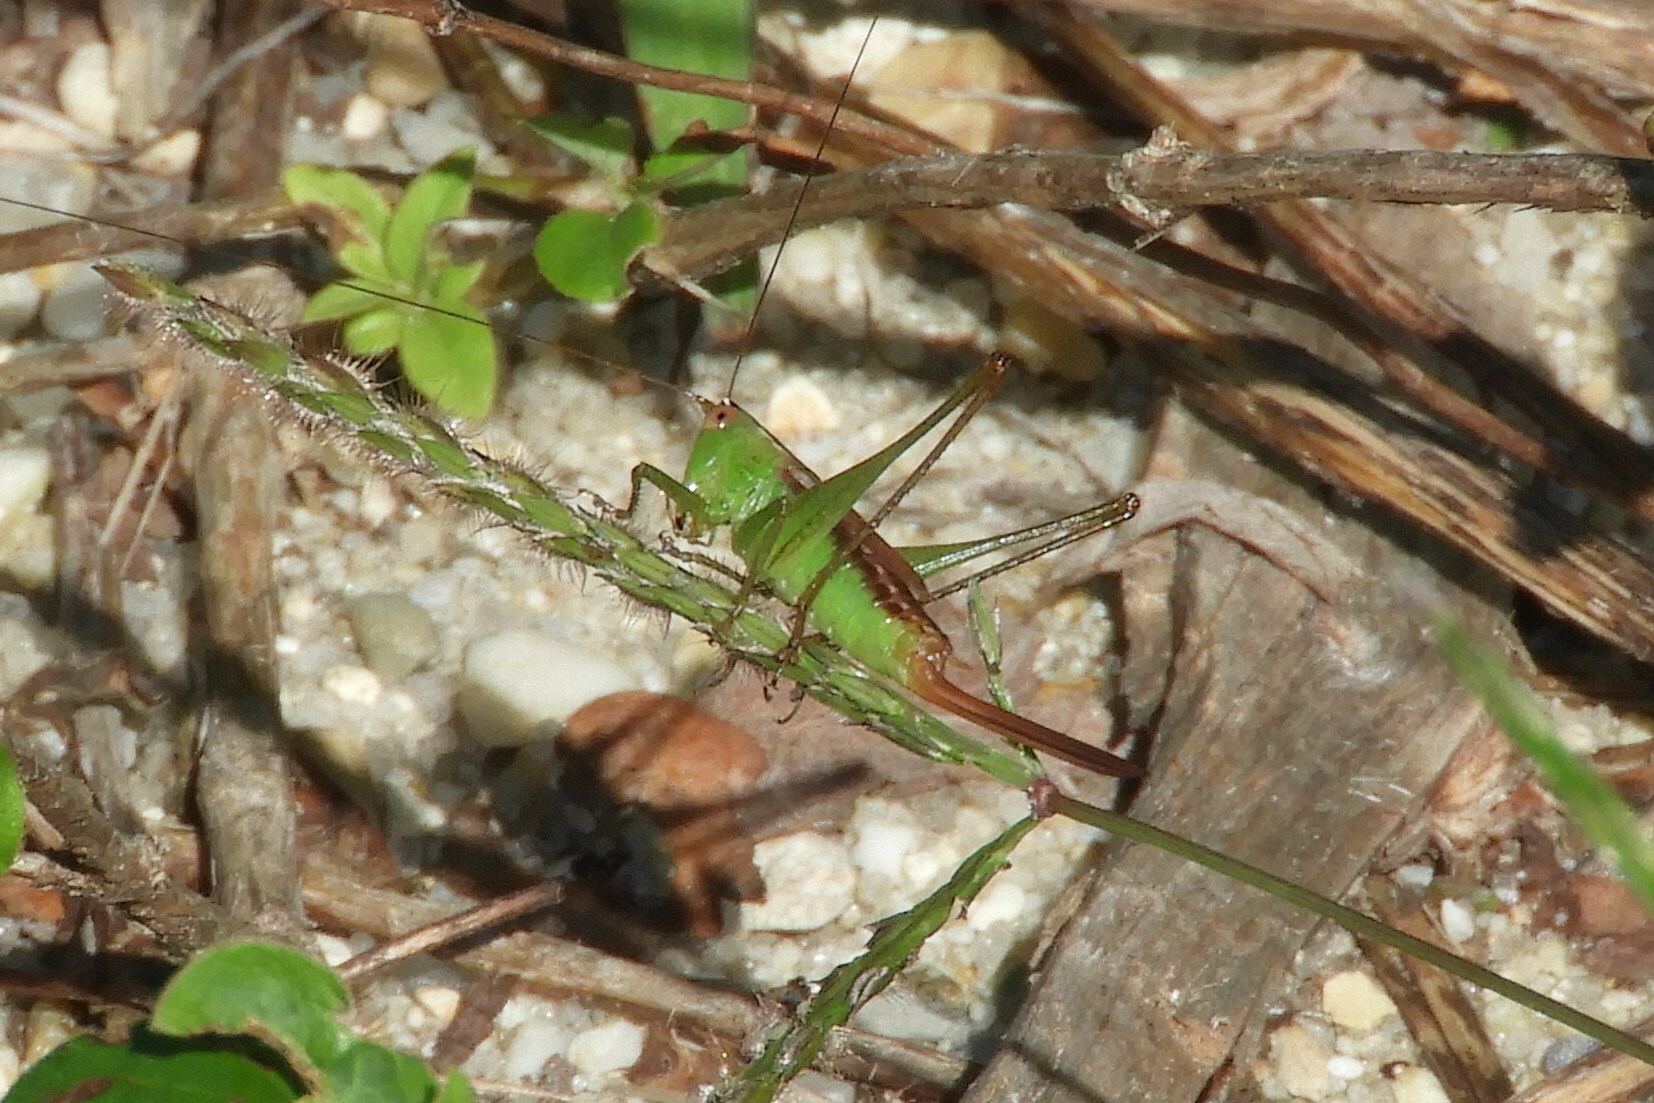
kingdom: Animalia
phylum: Arthropoda
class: Insecta
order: Orthoptera
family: Tettigoniidae
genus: Conocephalus
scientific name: Conocephalus brevipennis
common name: Short-winged meadow katydid
